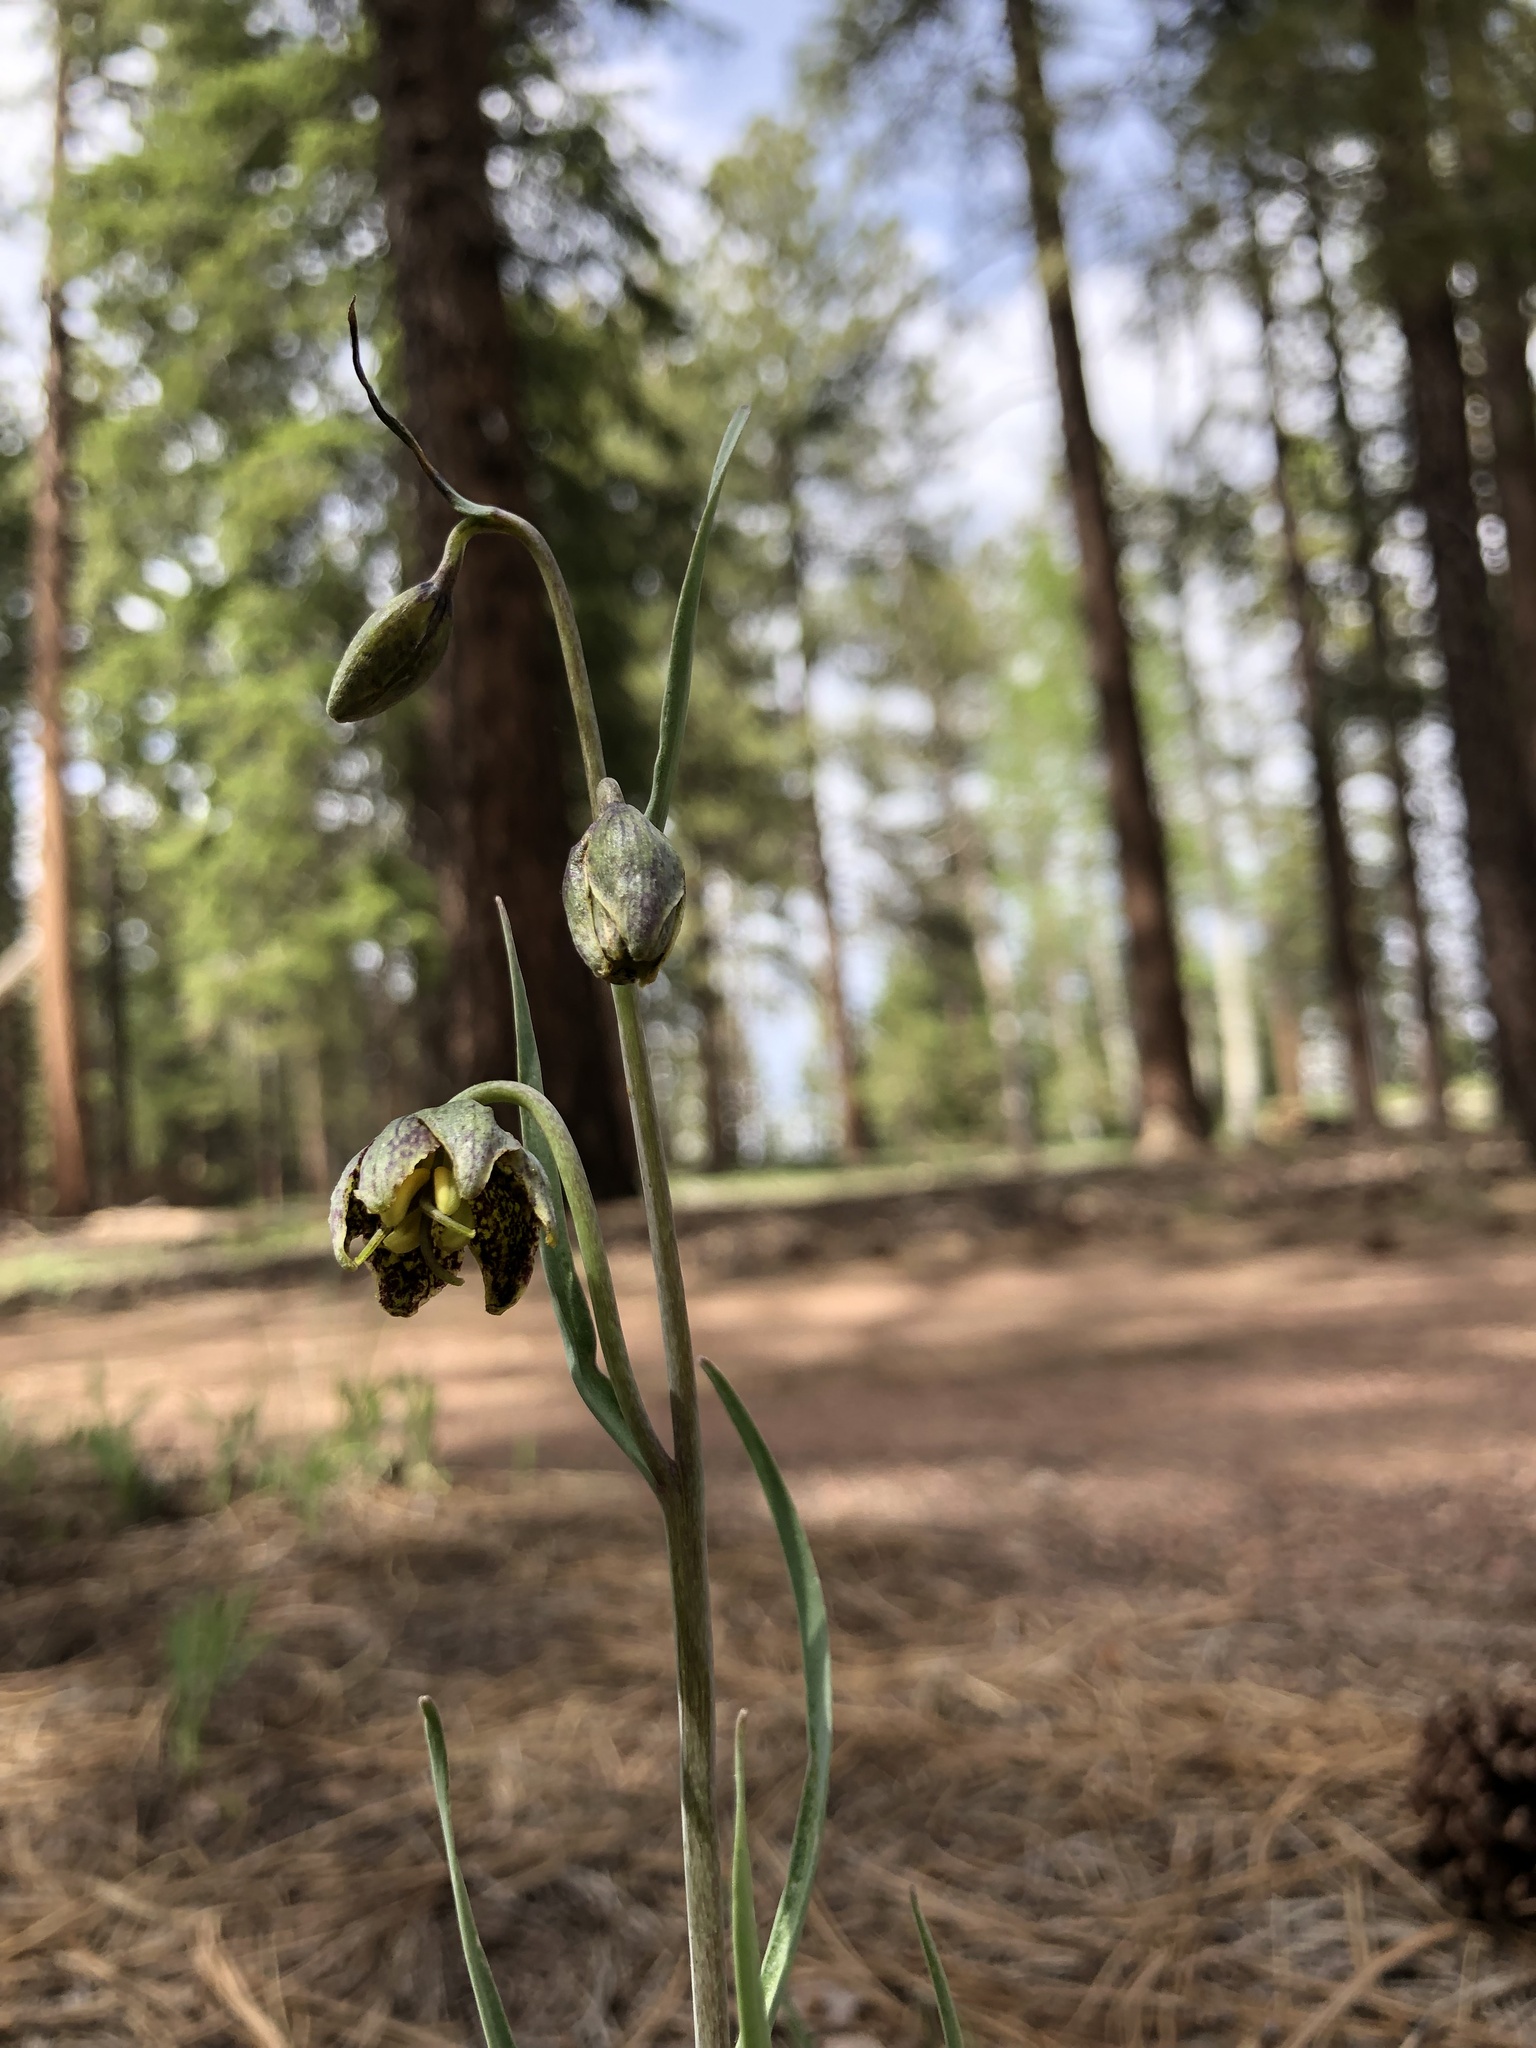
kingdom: Plantae
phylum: Tracheophyta
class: Liliopsida
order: Liliales
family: Liliaceae
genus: Fritillaria
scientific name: Fritillaria atropurpurea
